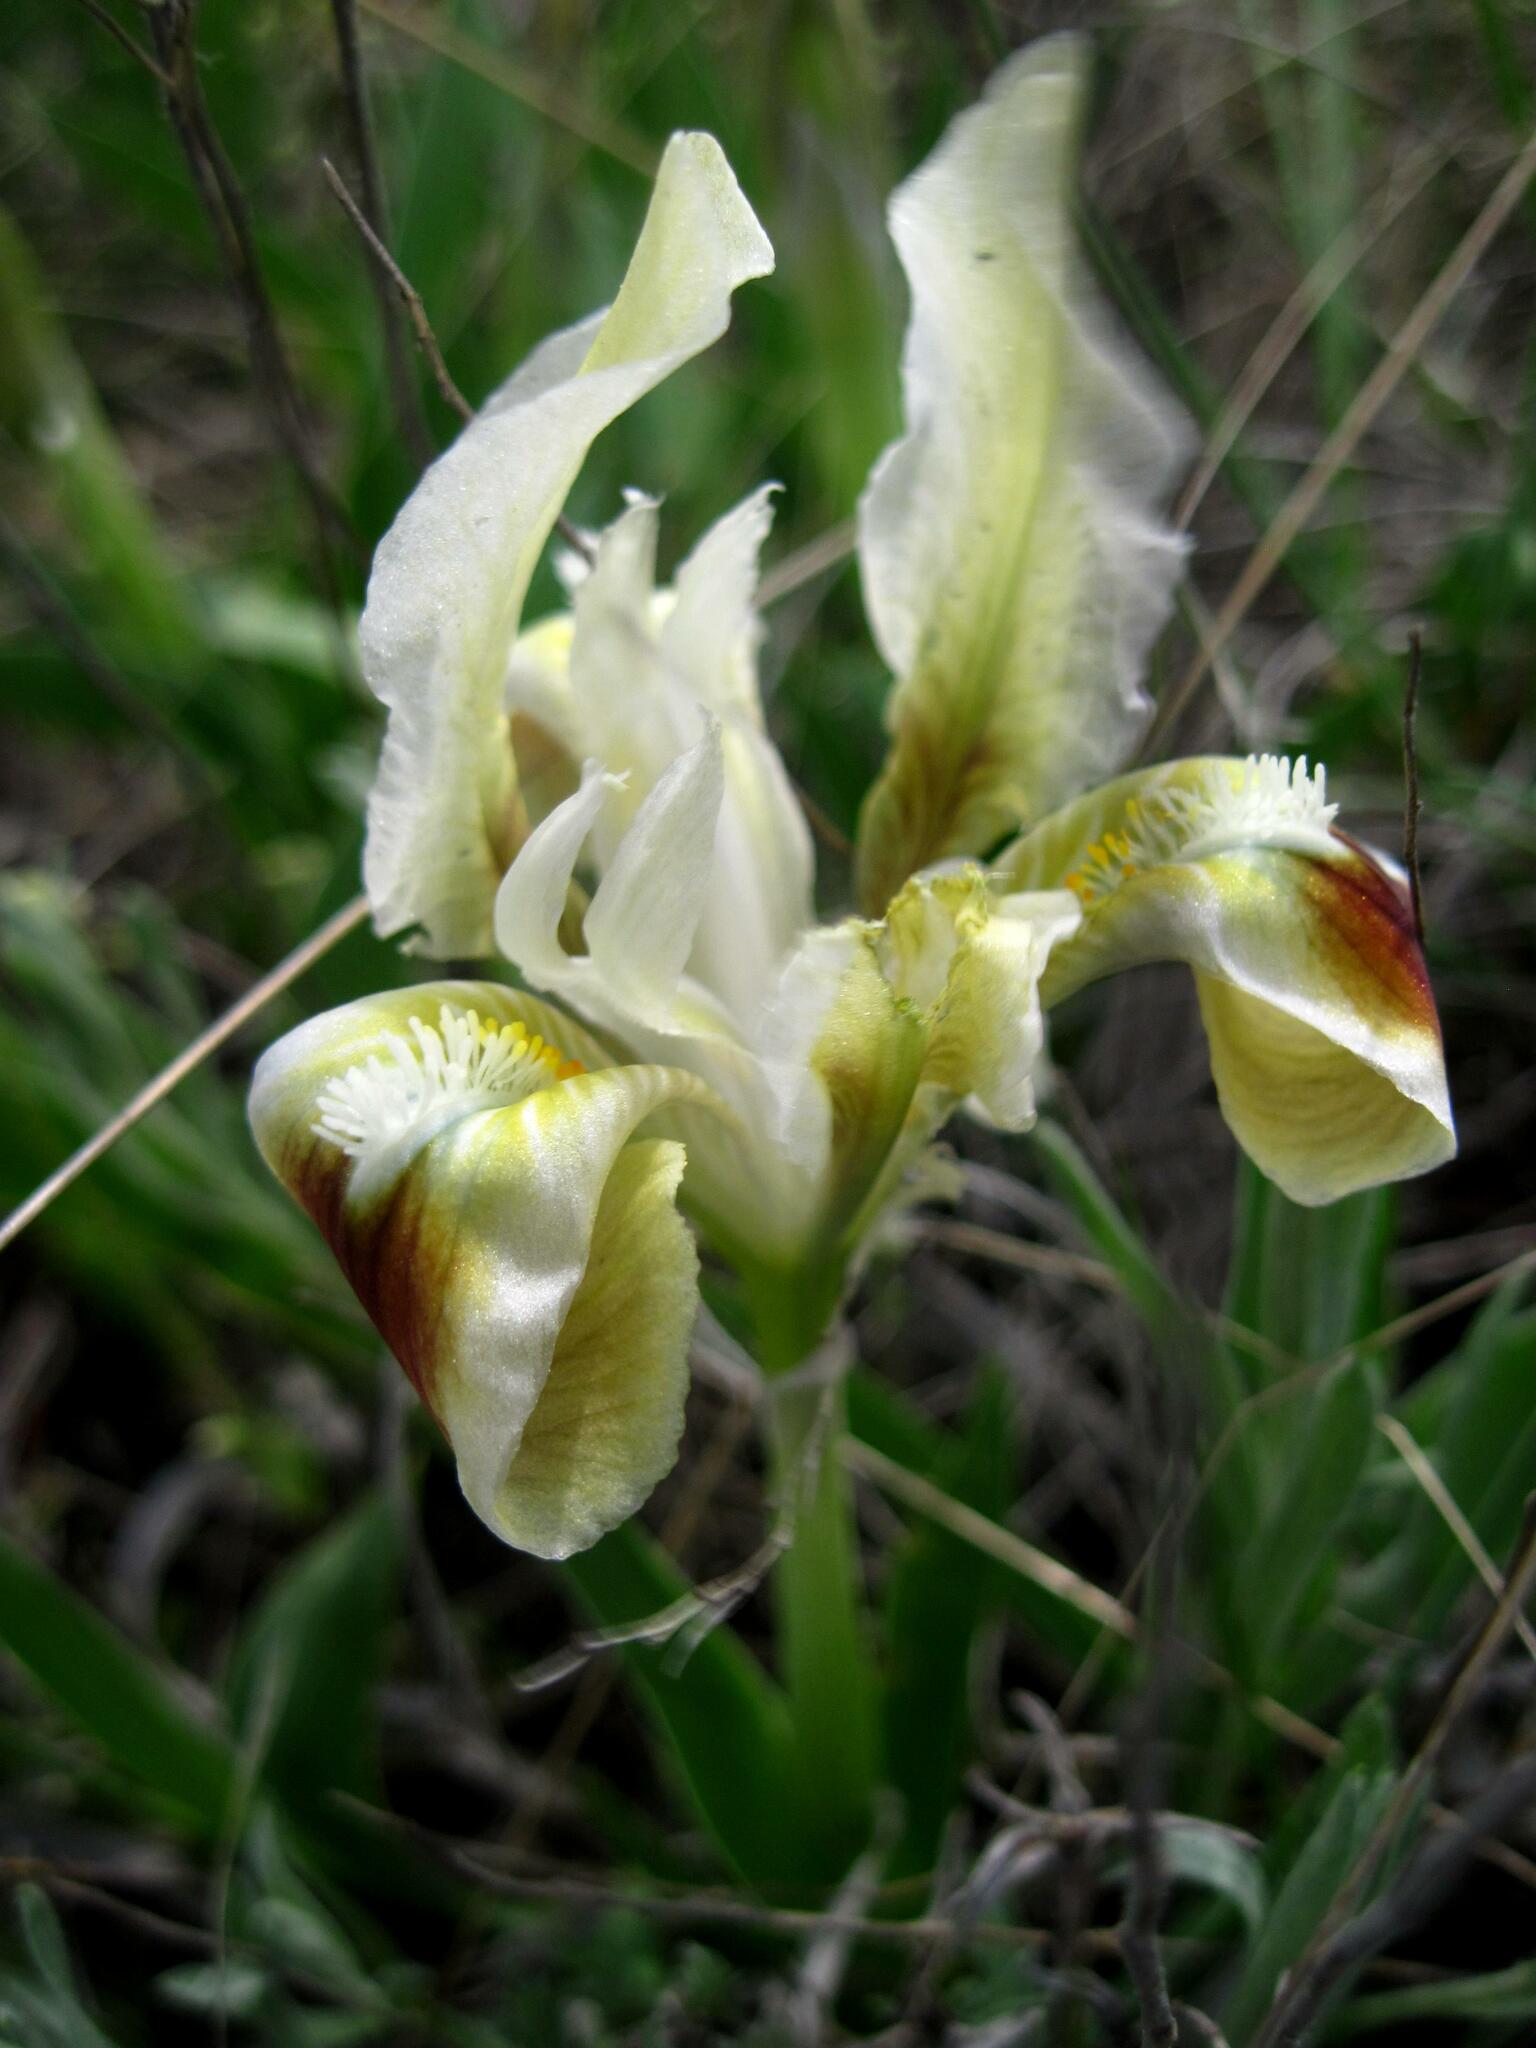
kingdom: Plantae
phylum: Tracheophyta
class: Liliopsida
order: Asparagales
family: Iridaceae
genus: Iris
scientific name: Iris pumila
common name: Dwarf iris
